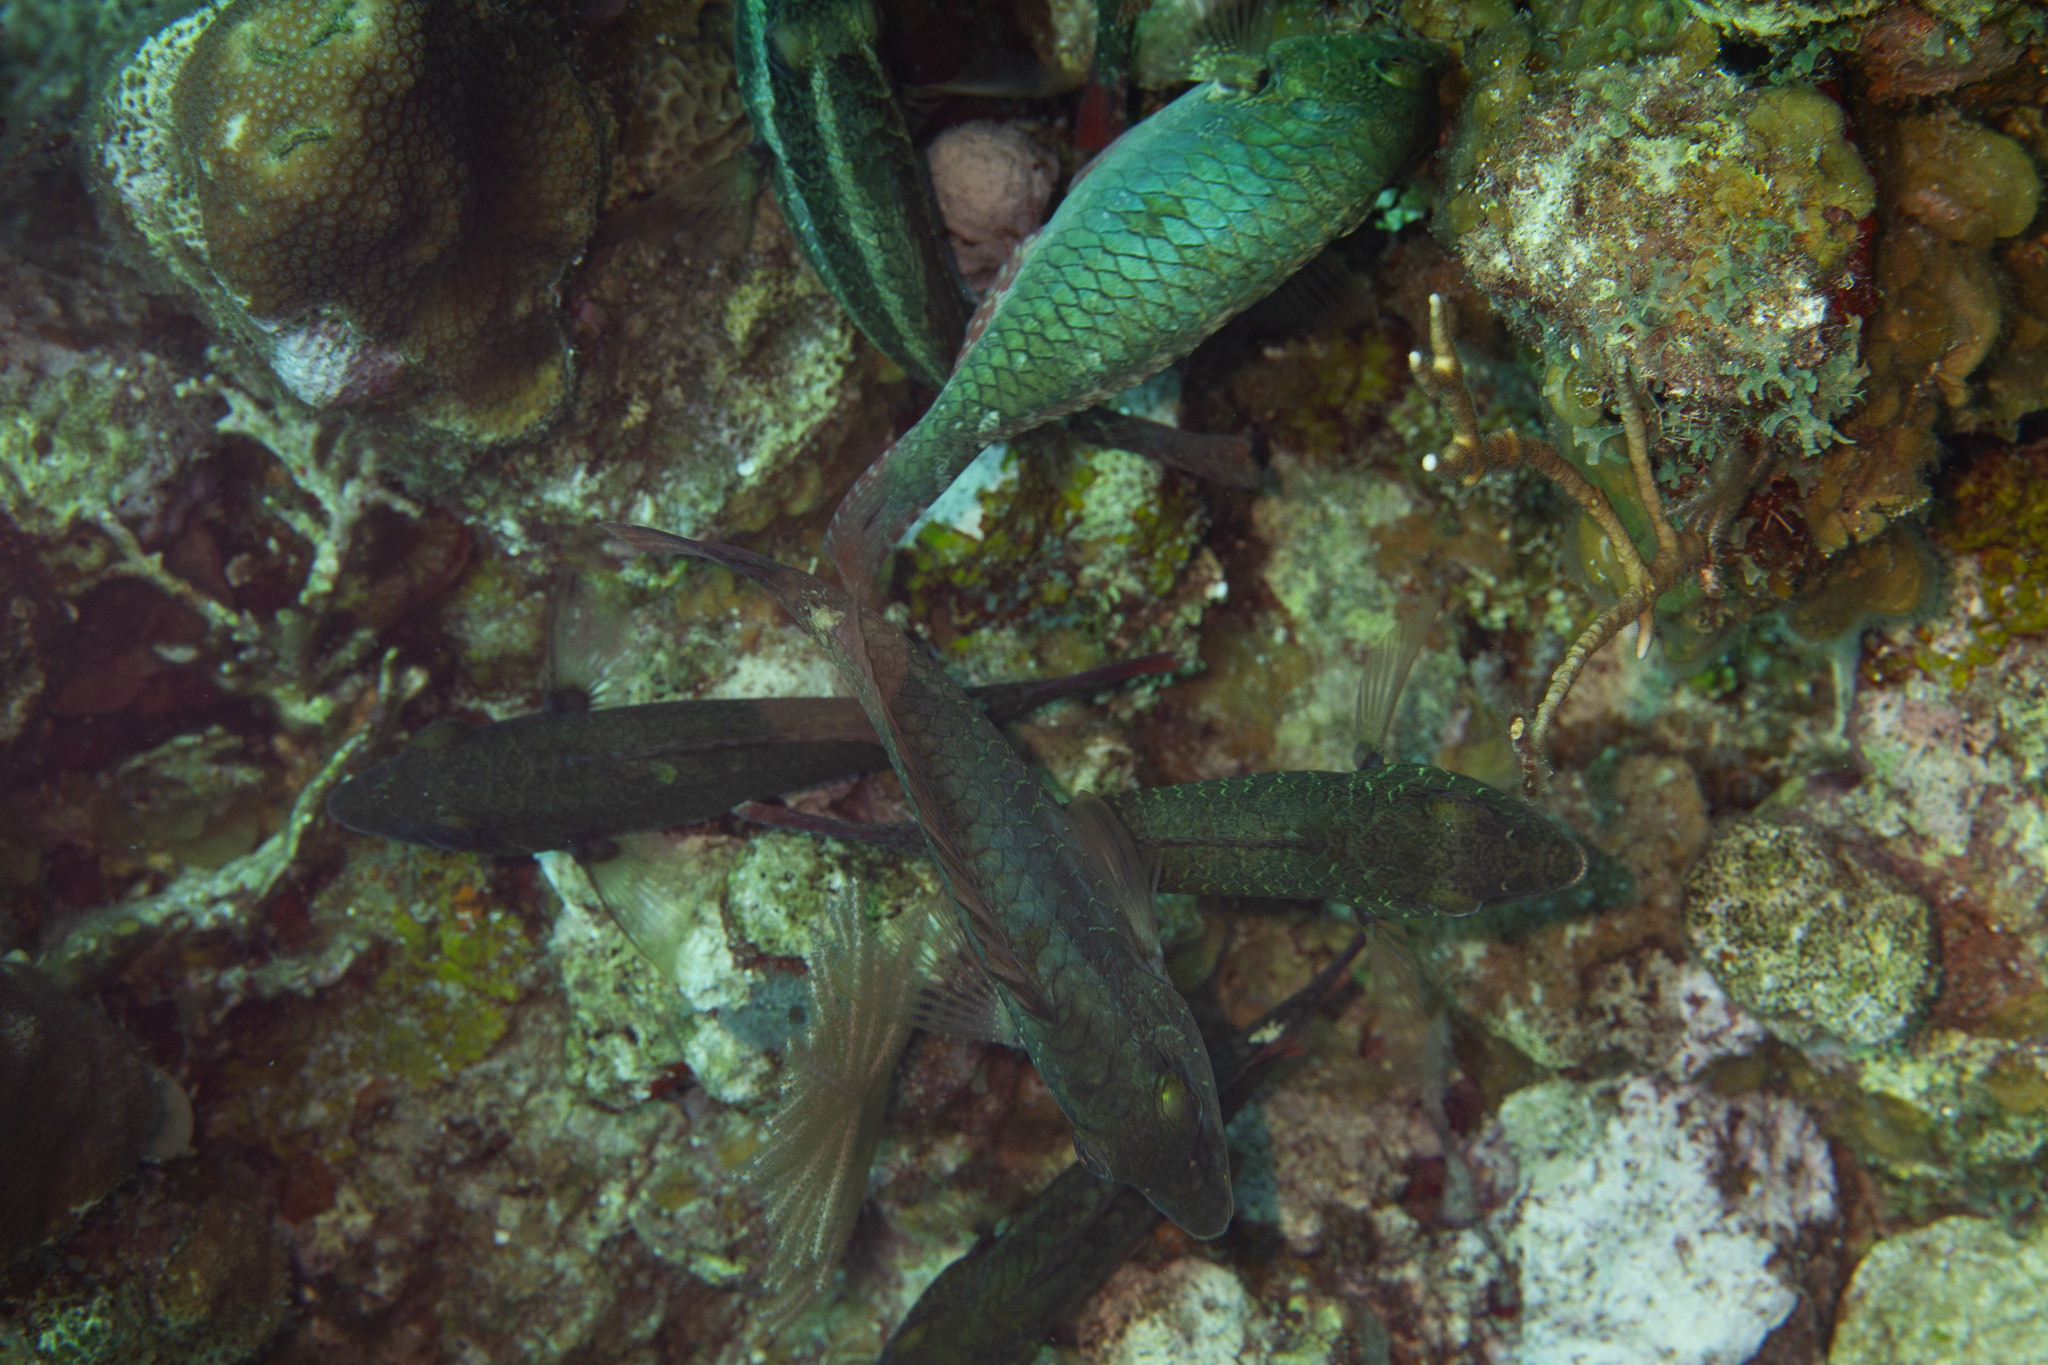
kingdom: Animalia
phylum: Chordata
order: Perciformes
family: Scaridae
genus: Sparisoma
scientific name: Sparisoma aurofrenatum
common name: Redband parrotfish
